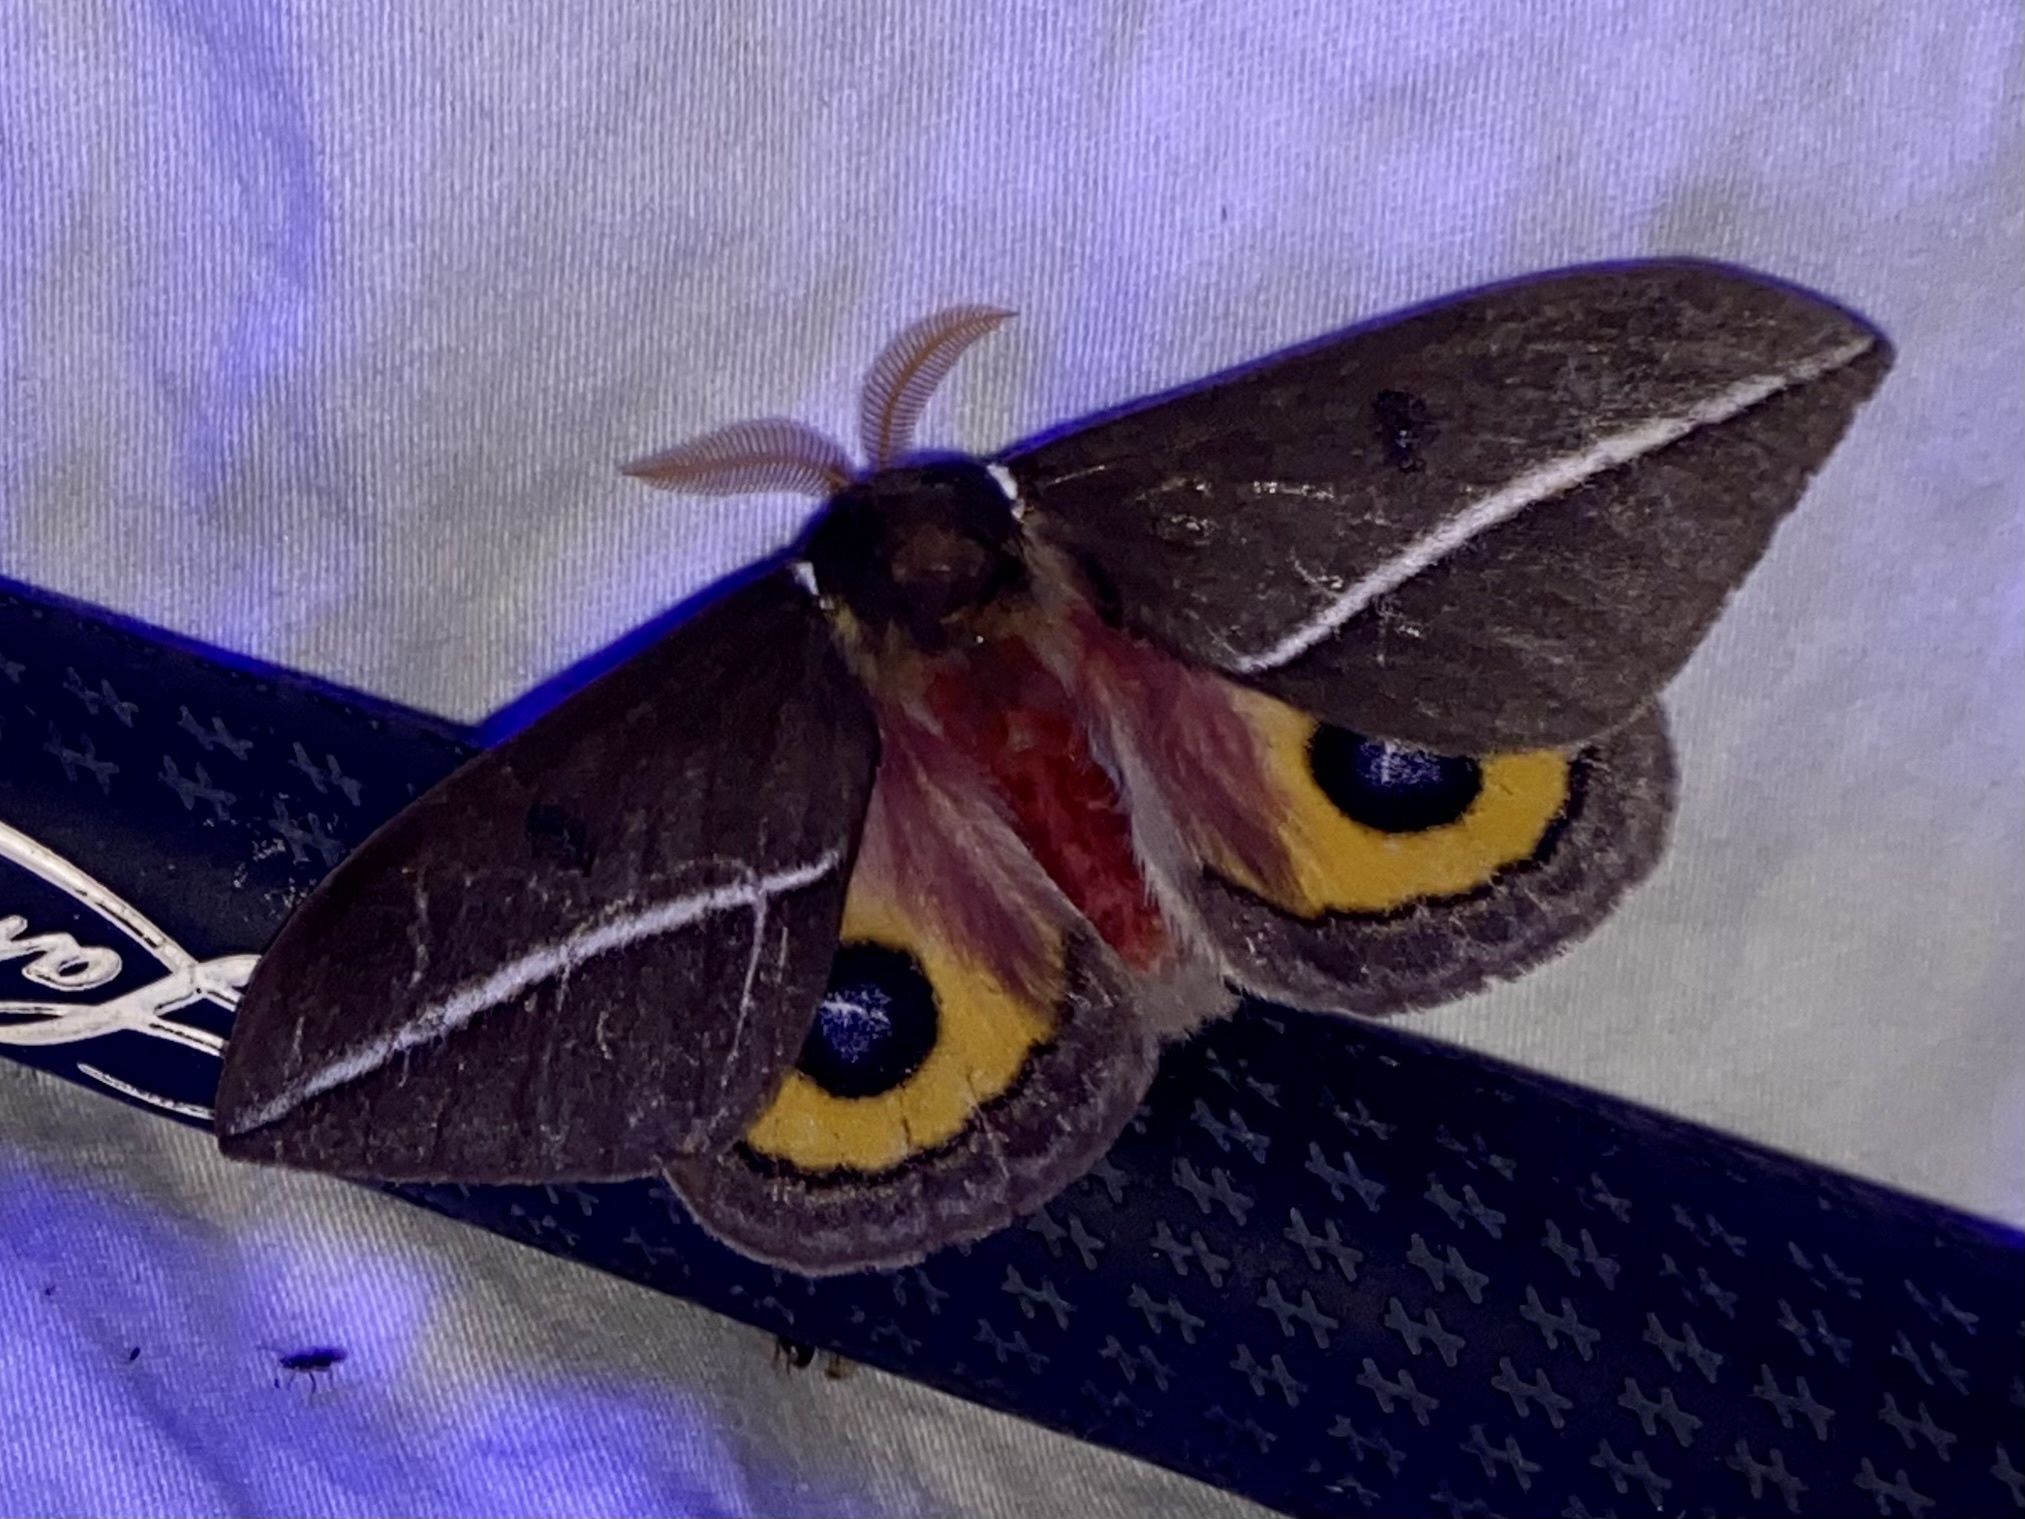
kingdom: Animalia
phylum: Arthropoda
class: Insecta
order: Lepidoptera
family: Saturniidae
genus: Automeris
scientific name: Automeris zephyria
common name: Zephyr eyed silkmoth
